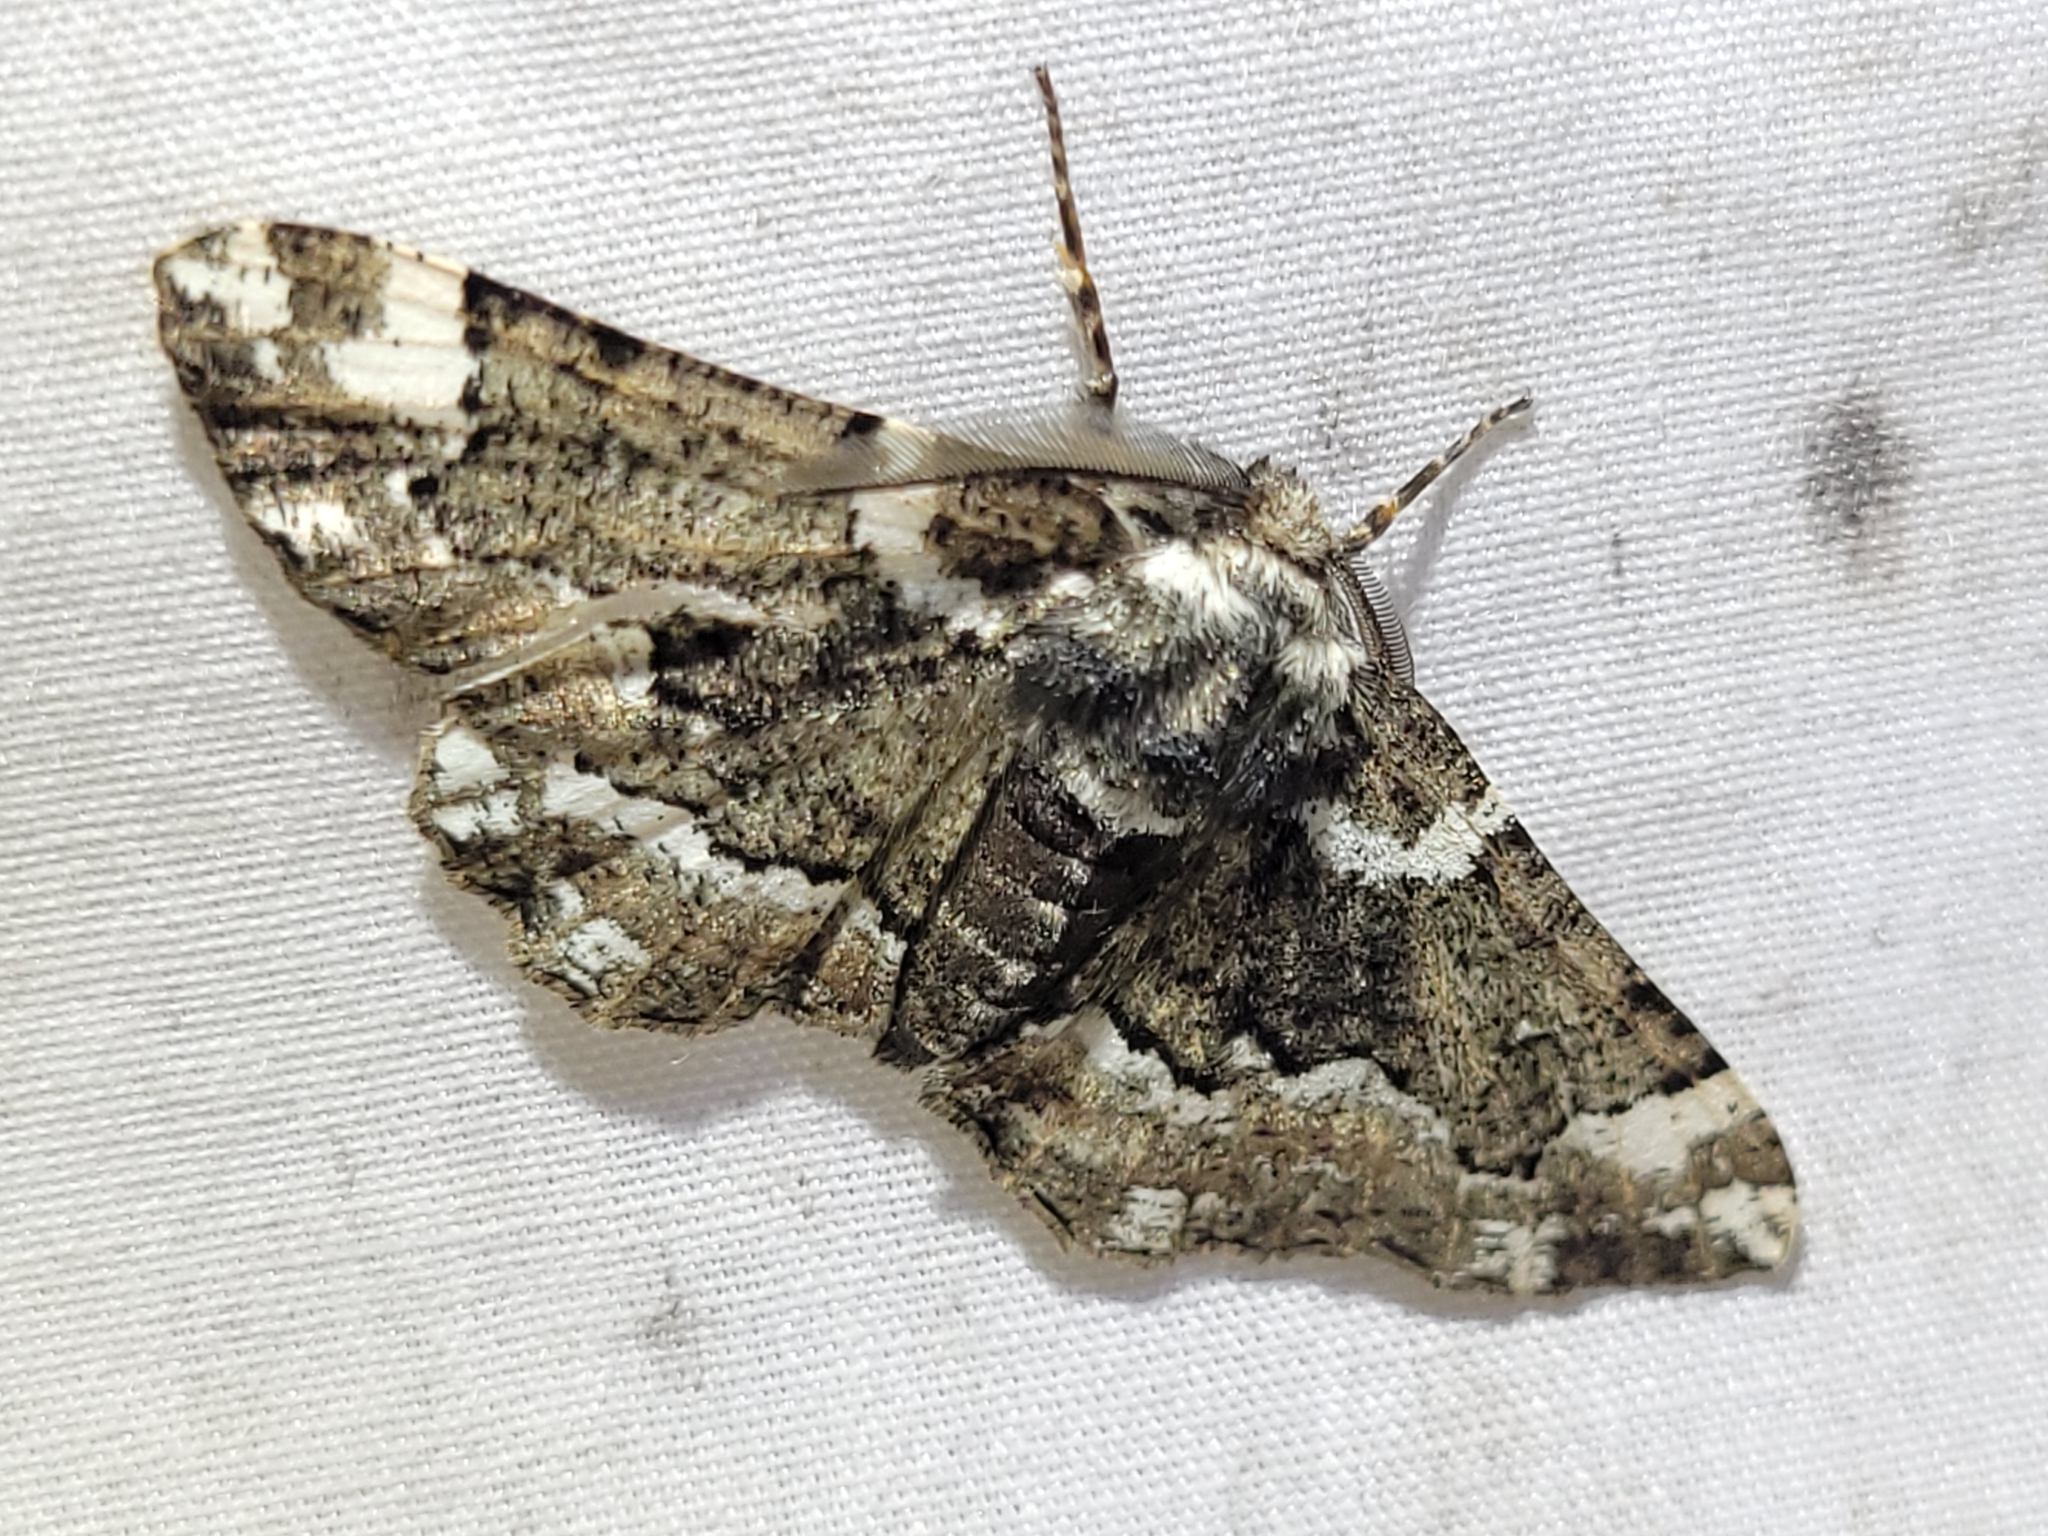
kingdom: Animalia
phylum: Arthropoda
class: Insecta
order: Lepidoptera
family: Geometridae
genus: Phaeoura
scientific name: Phaeoura quernaria
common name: Oak beauty
